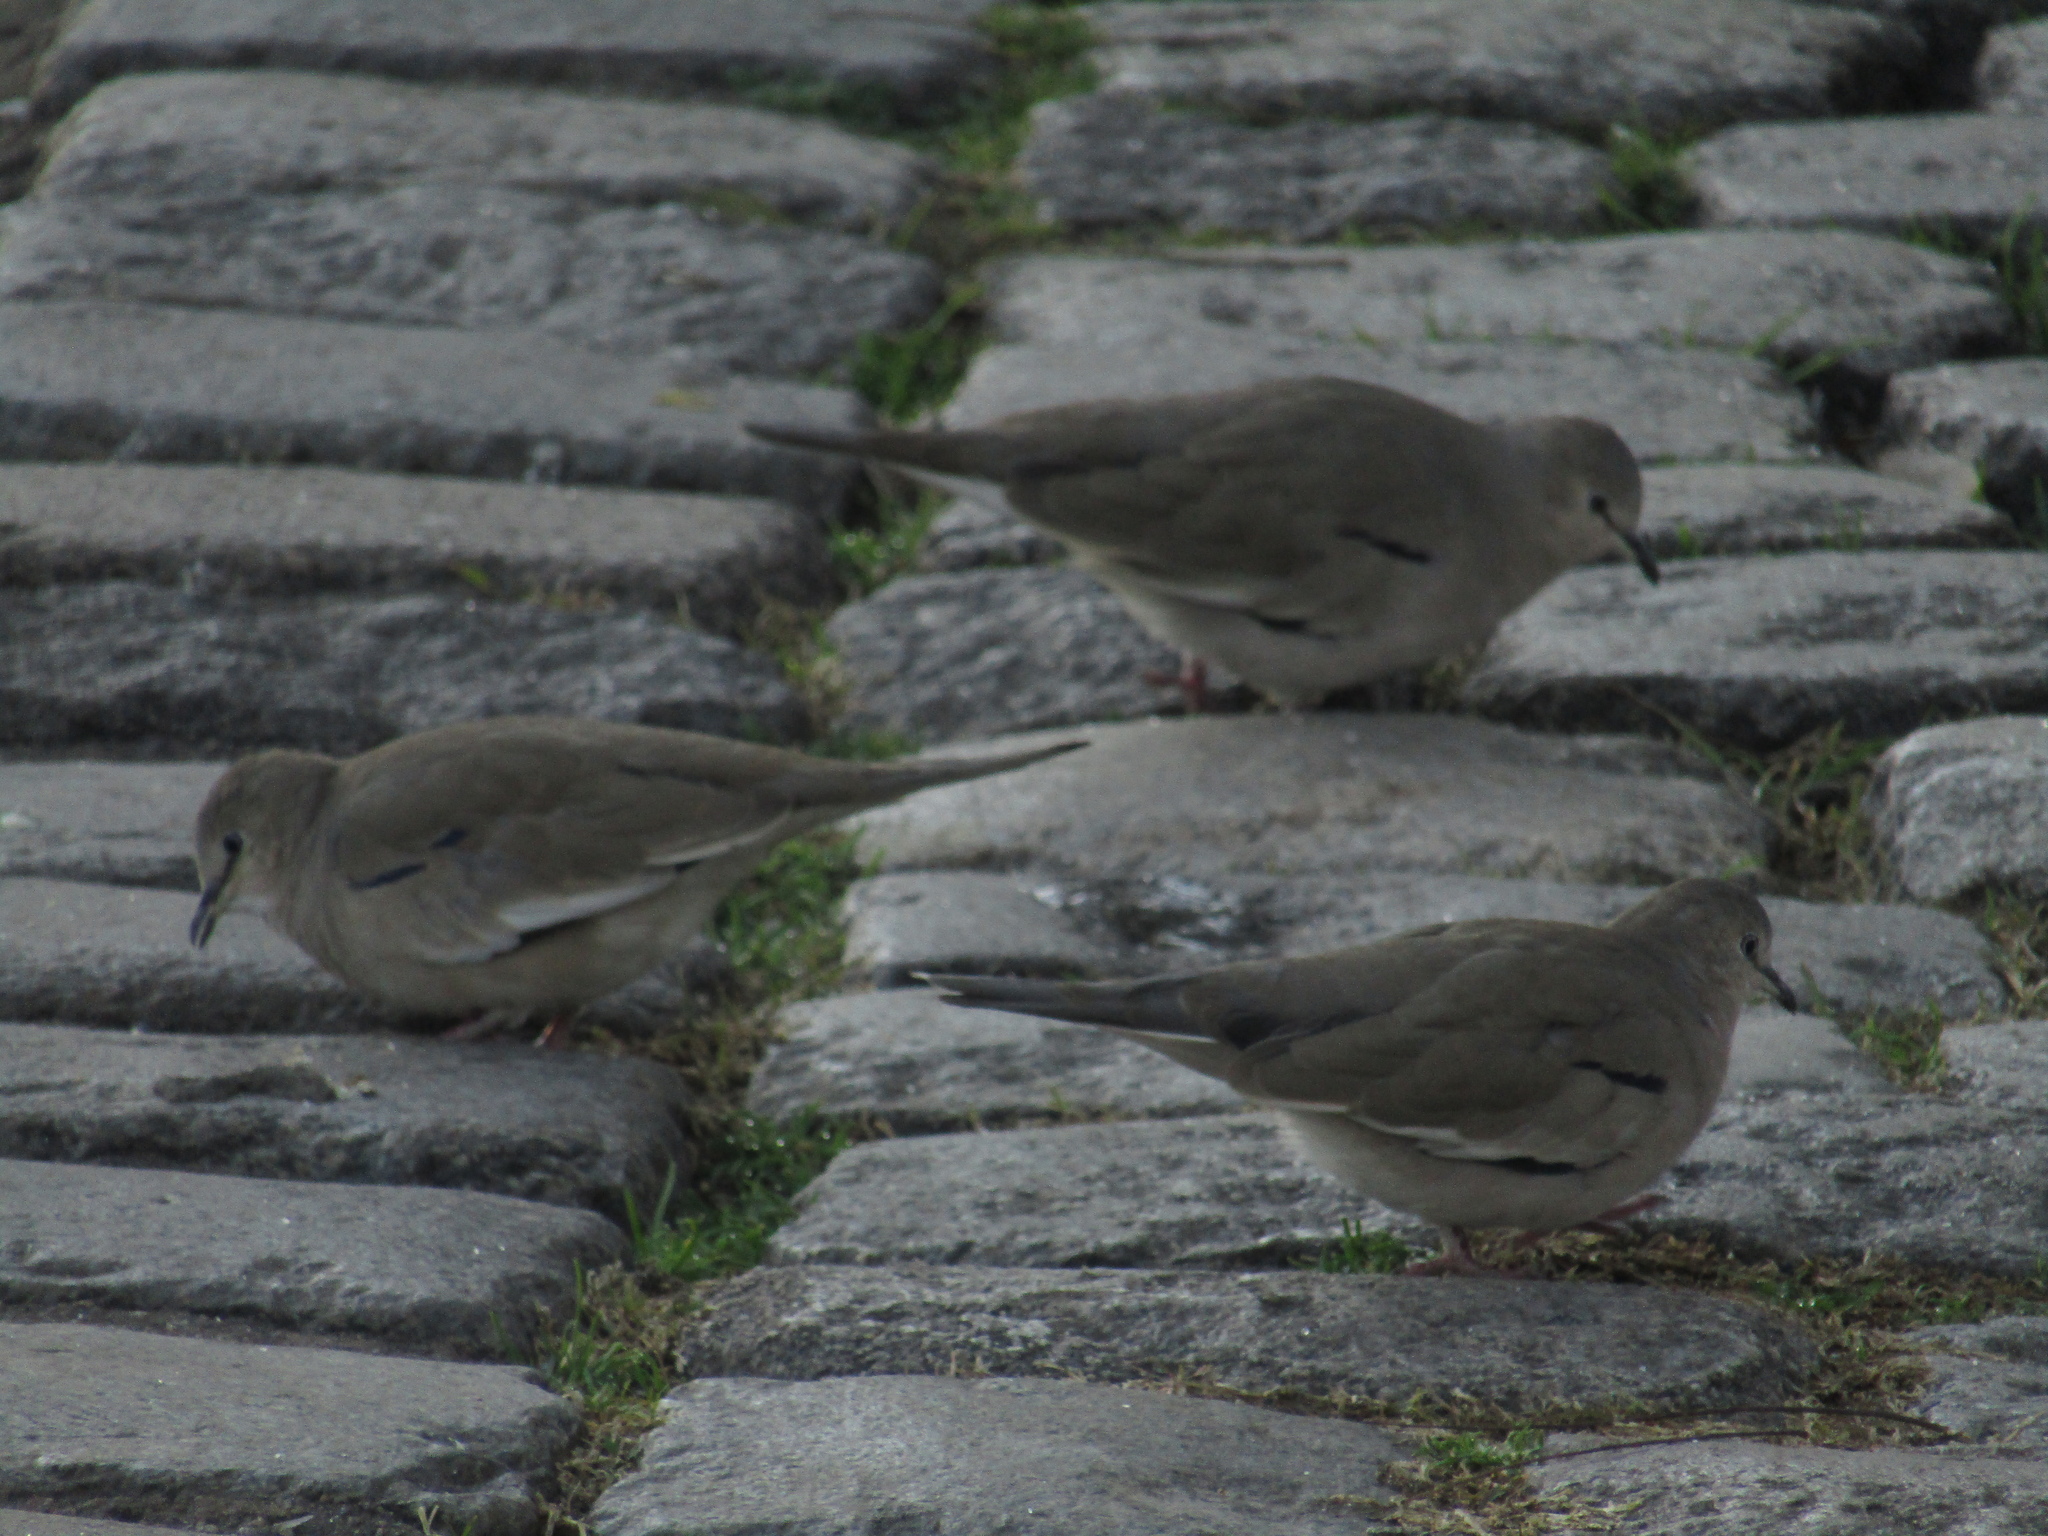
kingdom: Animalia
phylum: Chordata
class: Aves
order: Columbiformes
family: Columbidae
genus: Columbina
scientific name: Columbina picui
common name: Picui ground dove
